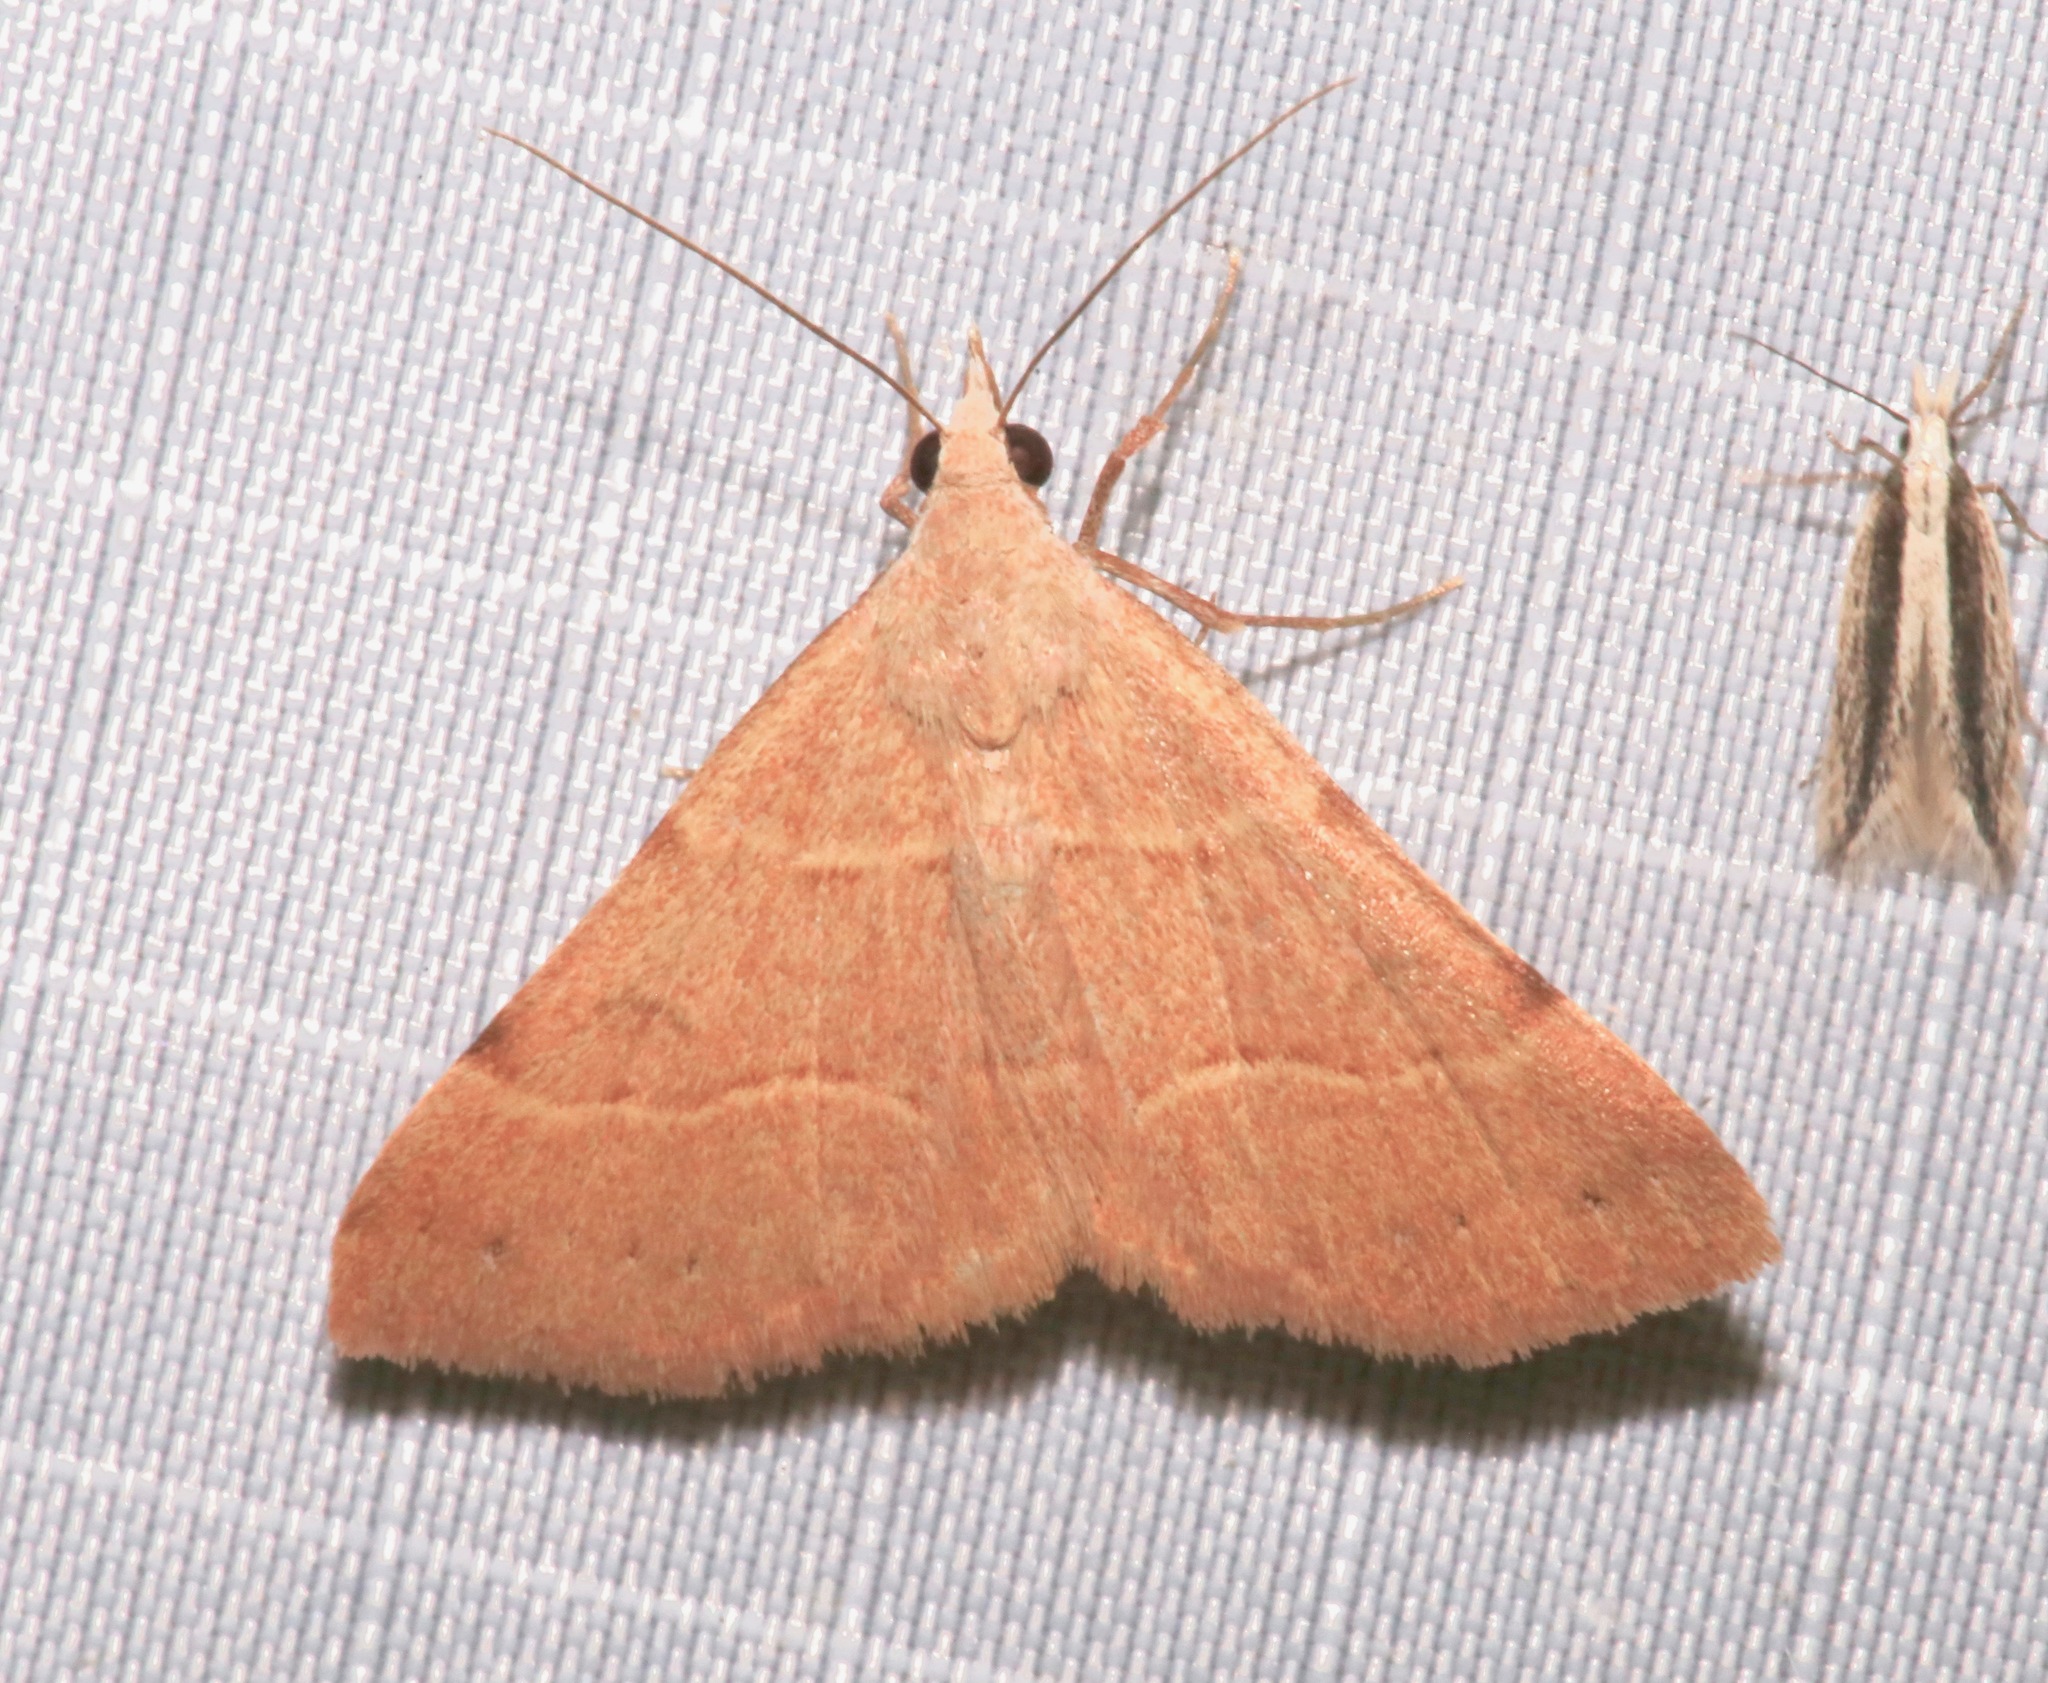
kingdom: Animalia
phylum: Arthropoda
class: Insecta
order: Lepidoptera
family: Erebidae
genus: Hemeroplanis
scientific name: Hemeroplanis rectalis
